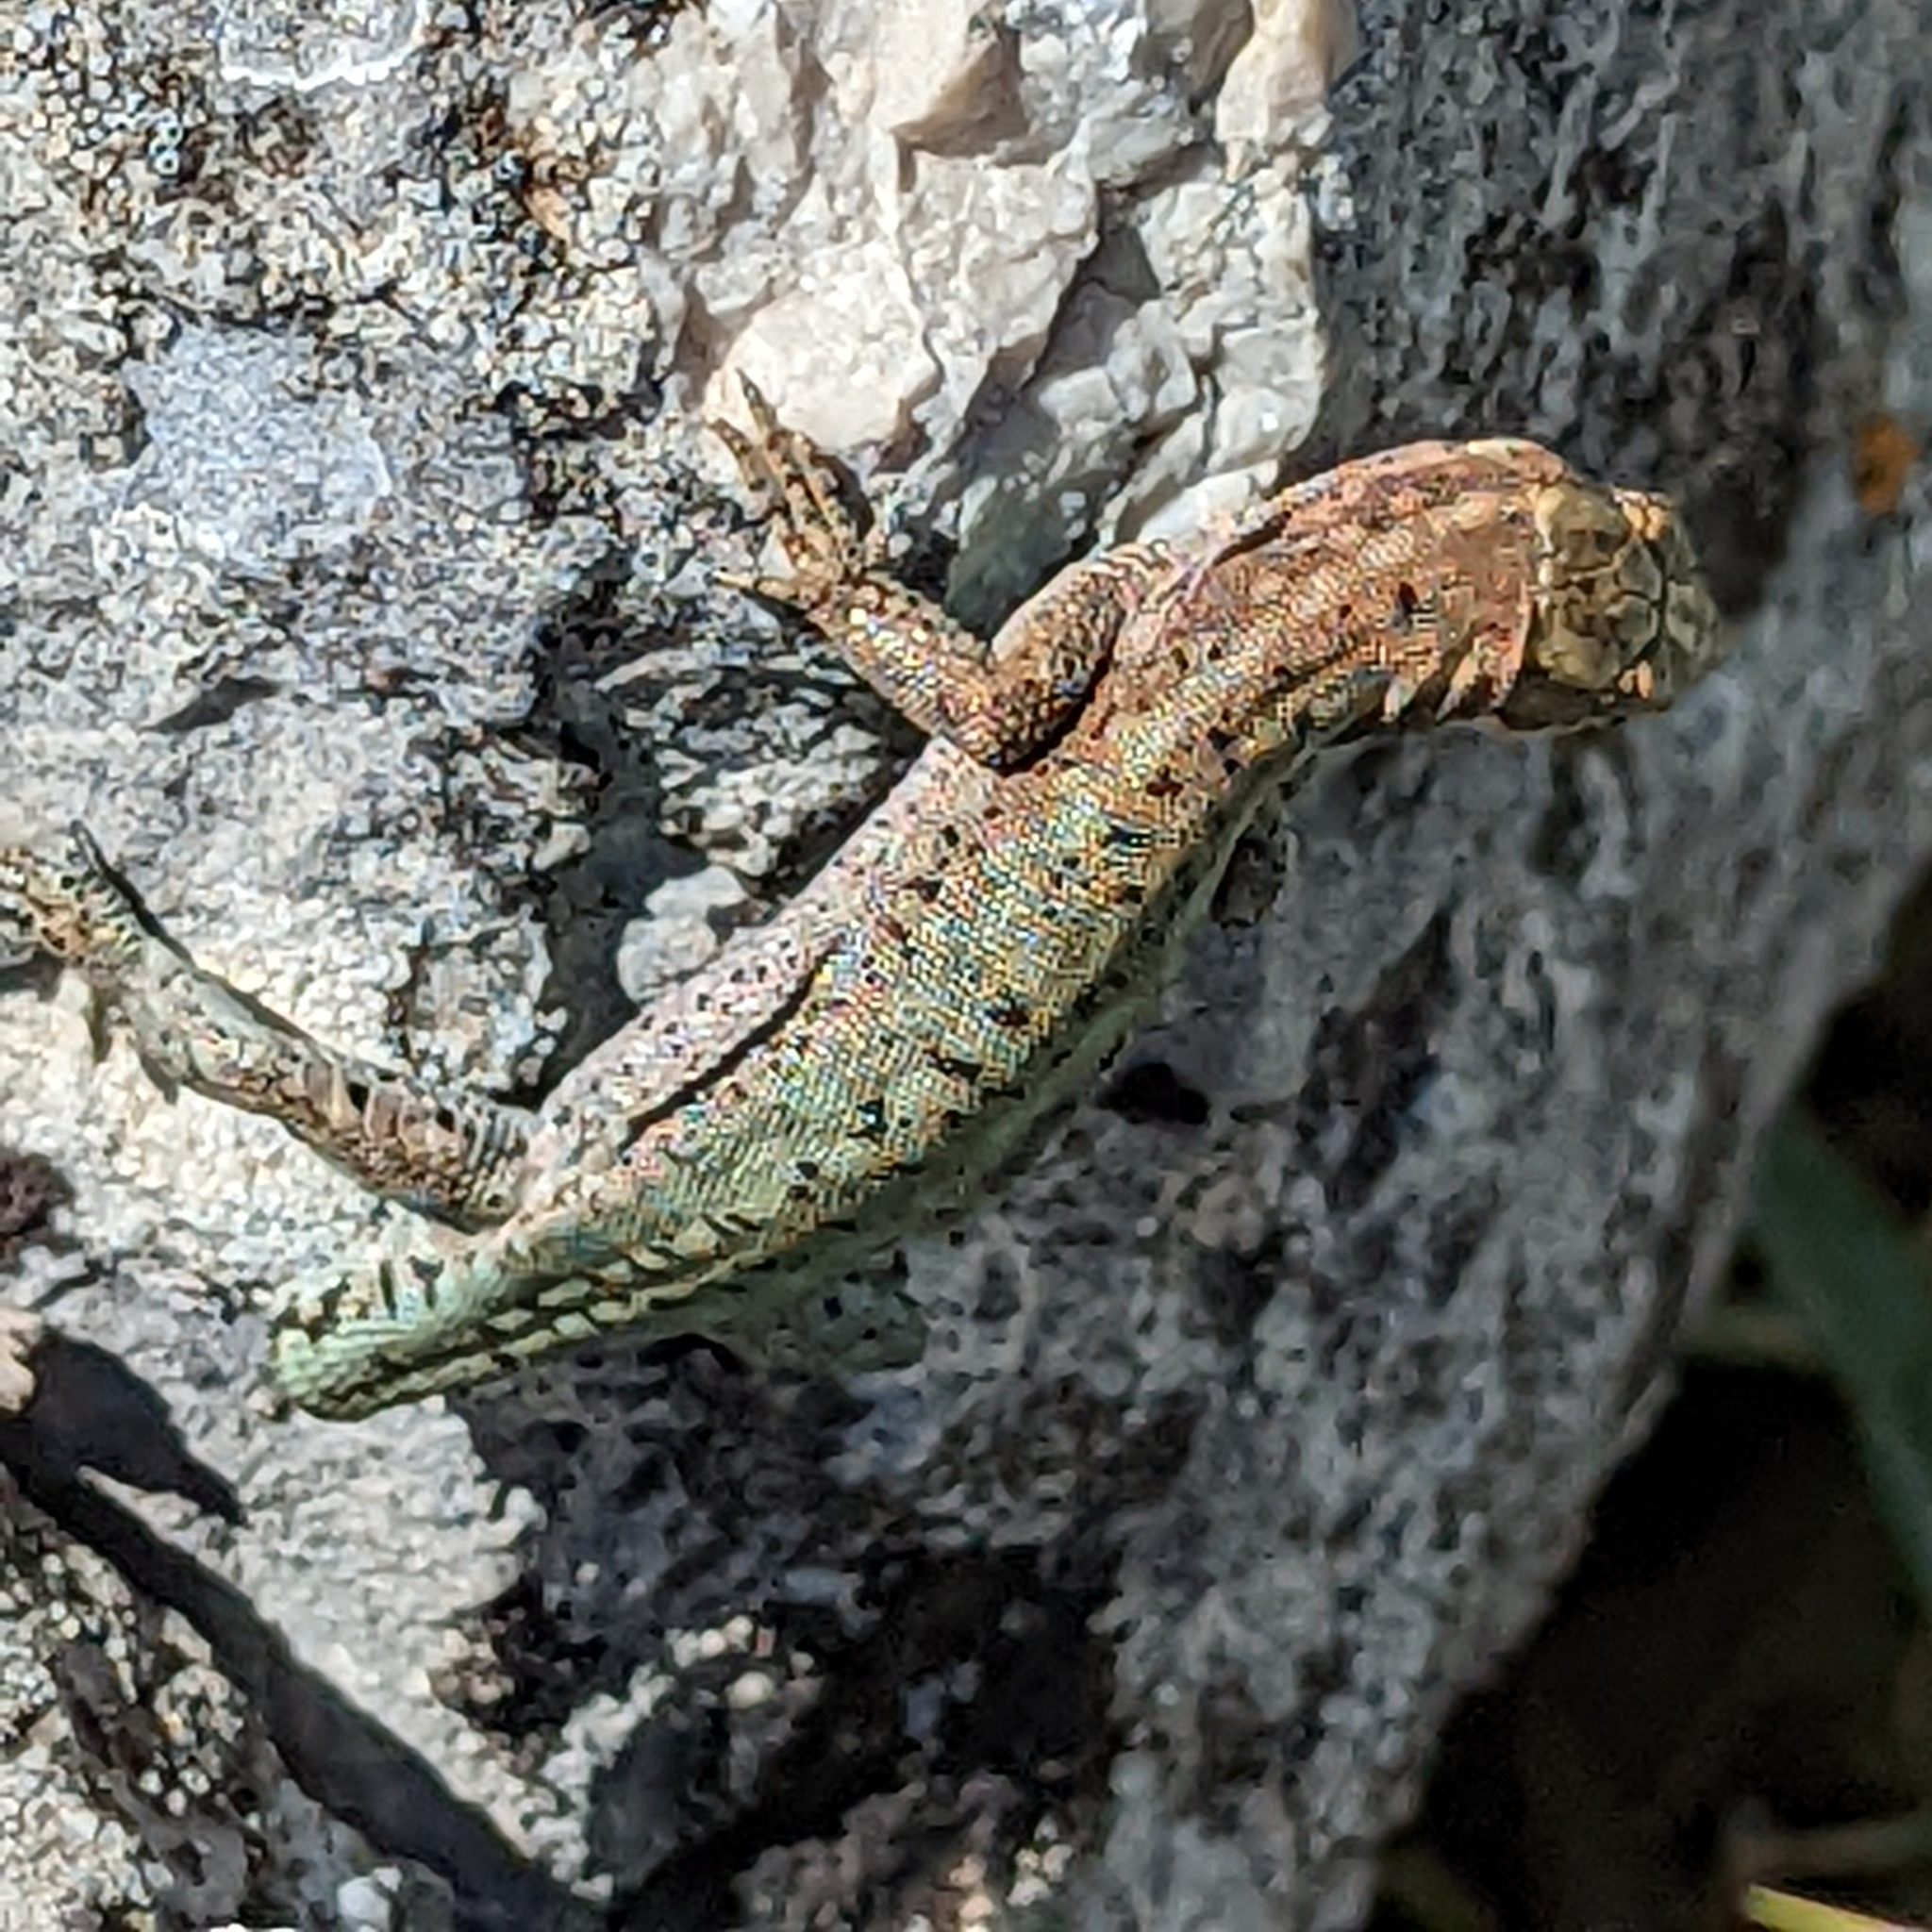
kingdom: Animalia
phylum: Chordata
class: Squamata
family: Lacertidae
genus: Anatololacerta
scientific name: Anatololacerta ibrahimi
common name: Baran’s lizard
